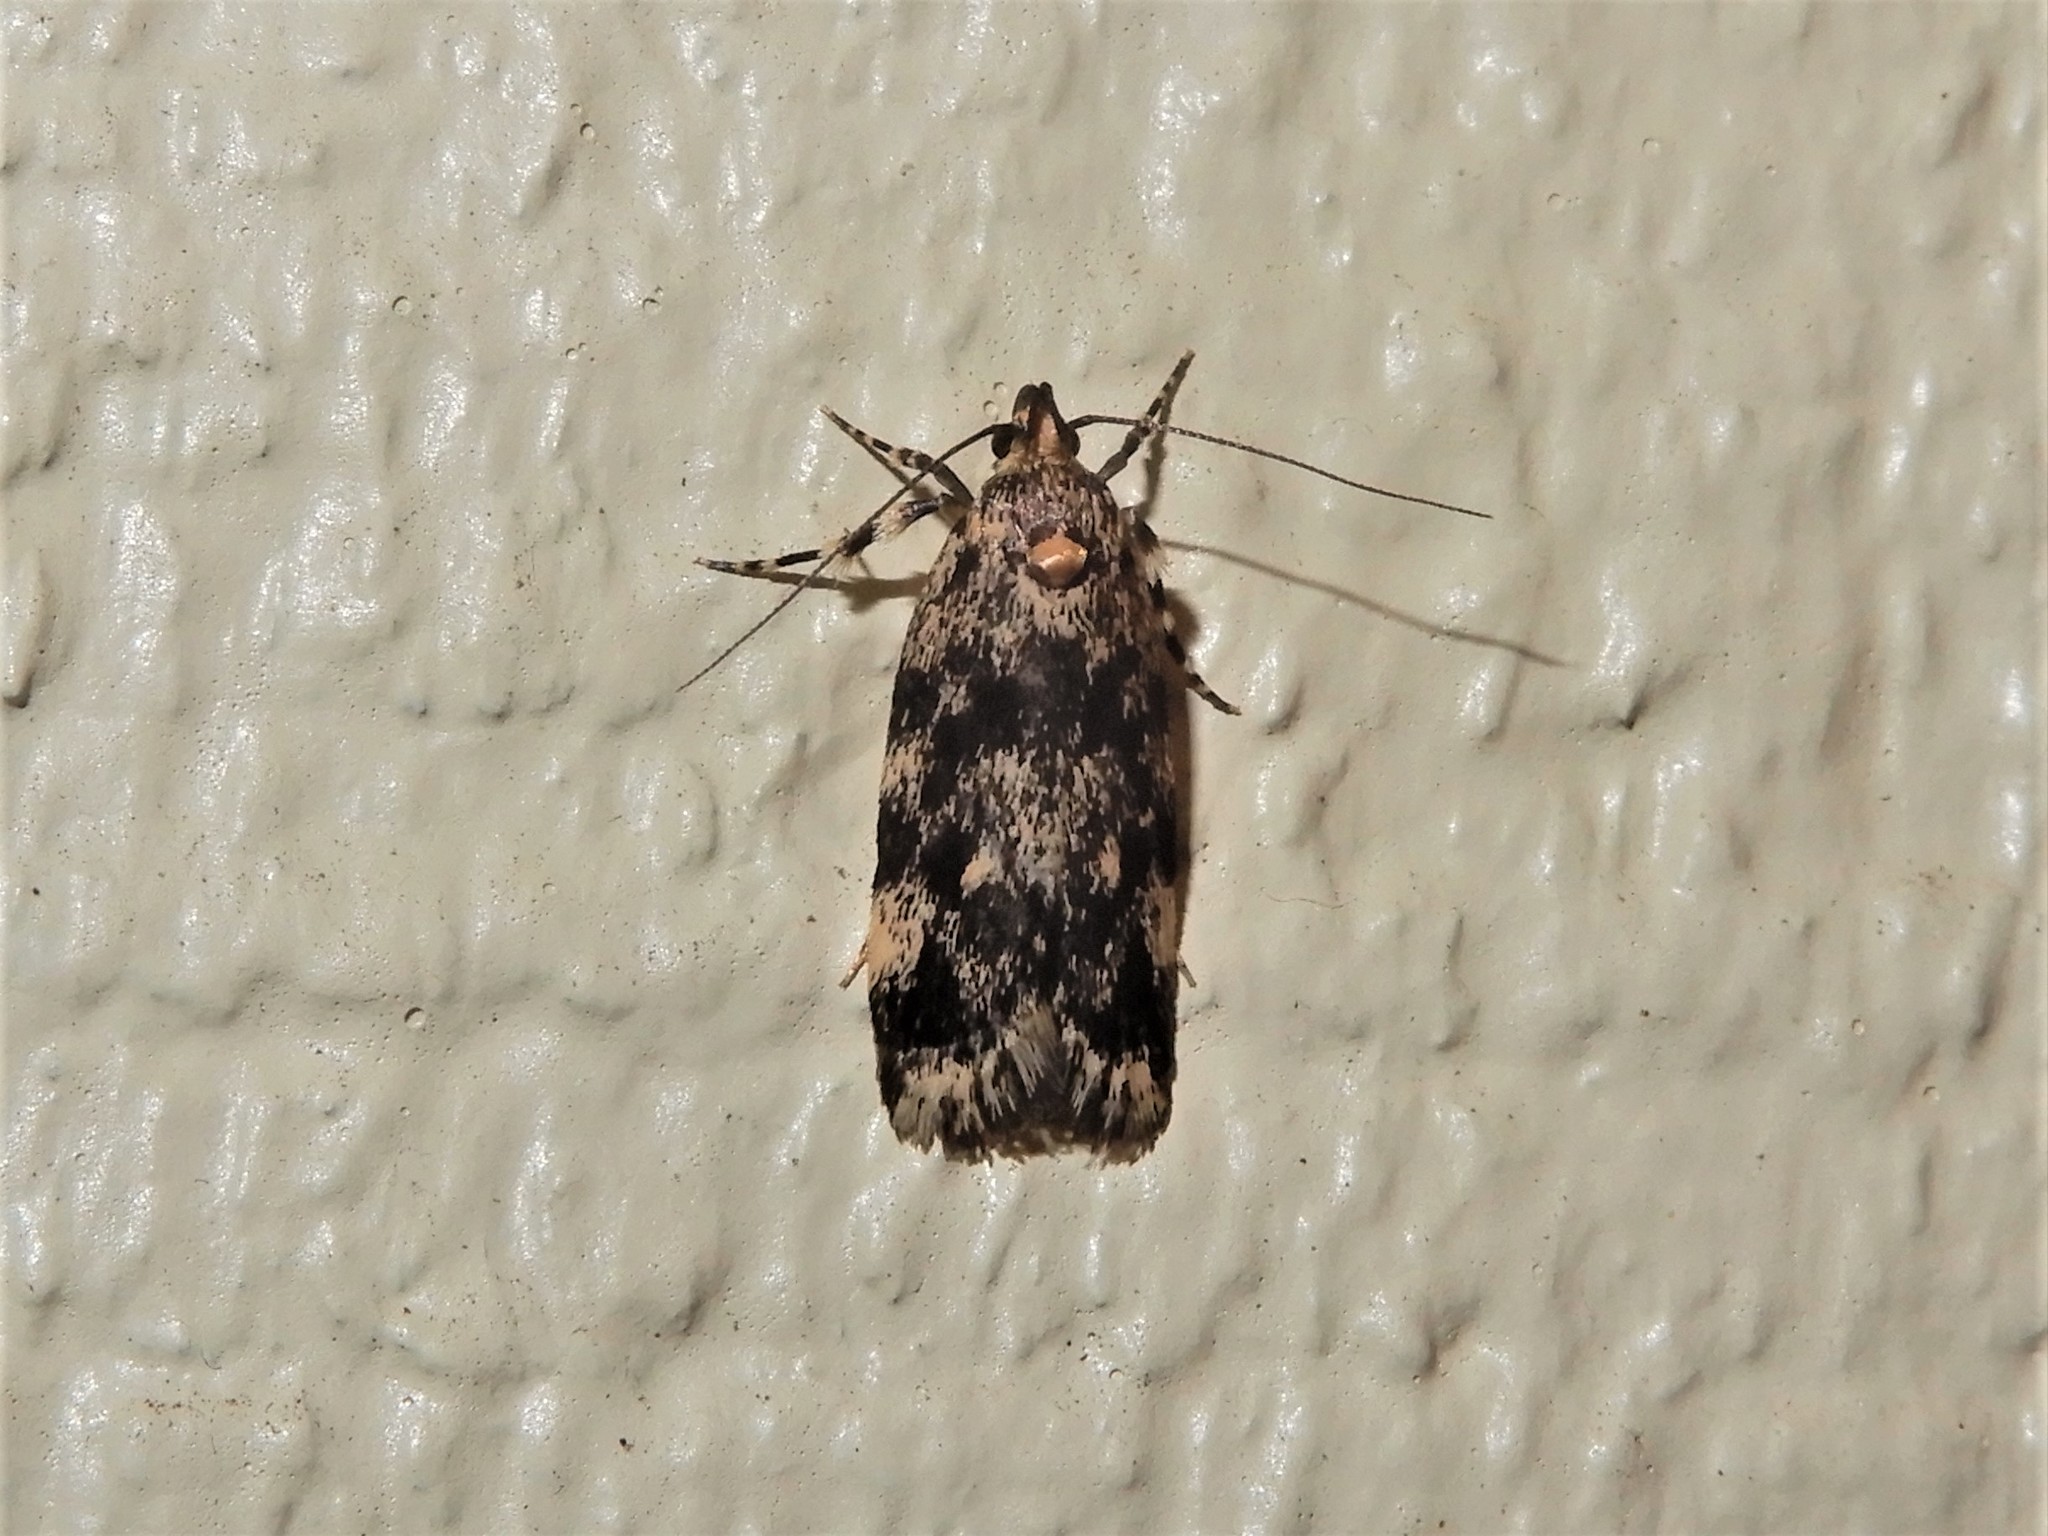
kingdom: Animalia
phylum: Arthropoda
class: Insecta
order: Lepidoptera
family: Oecophoridae
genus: Barea
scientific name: Barea codrella
